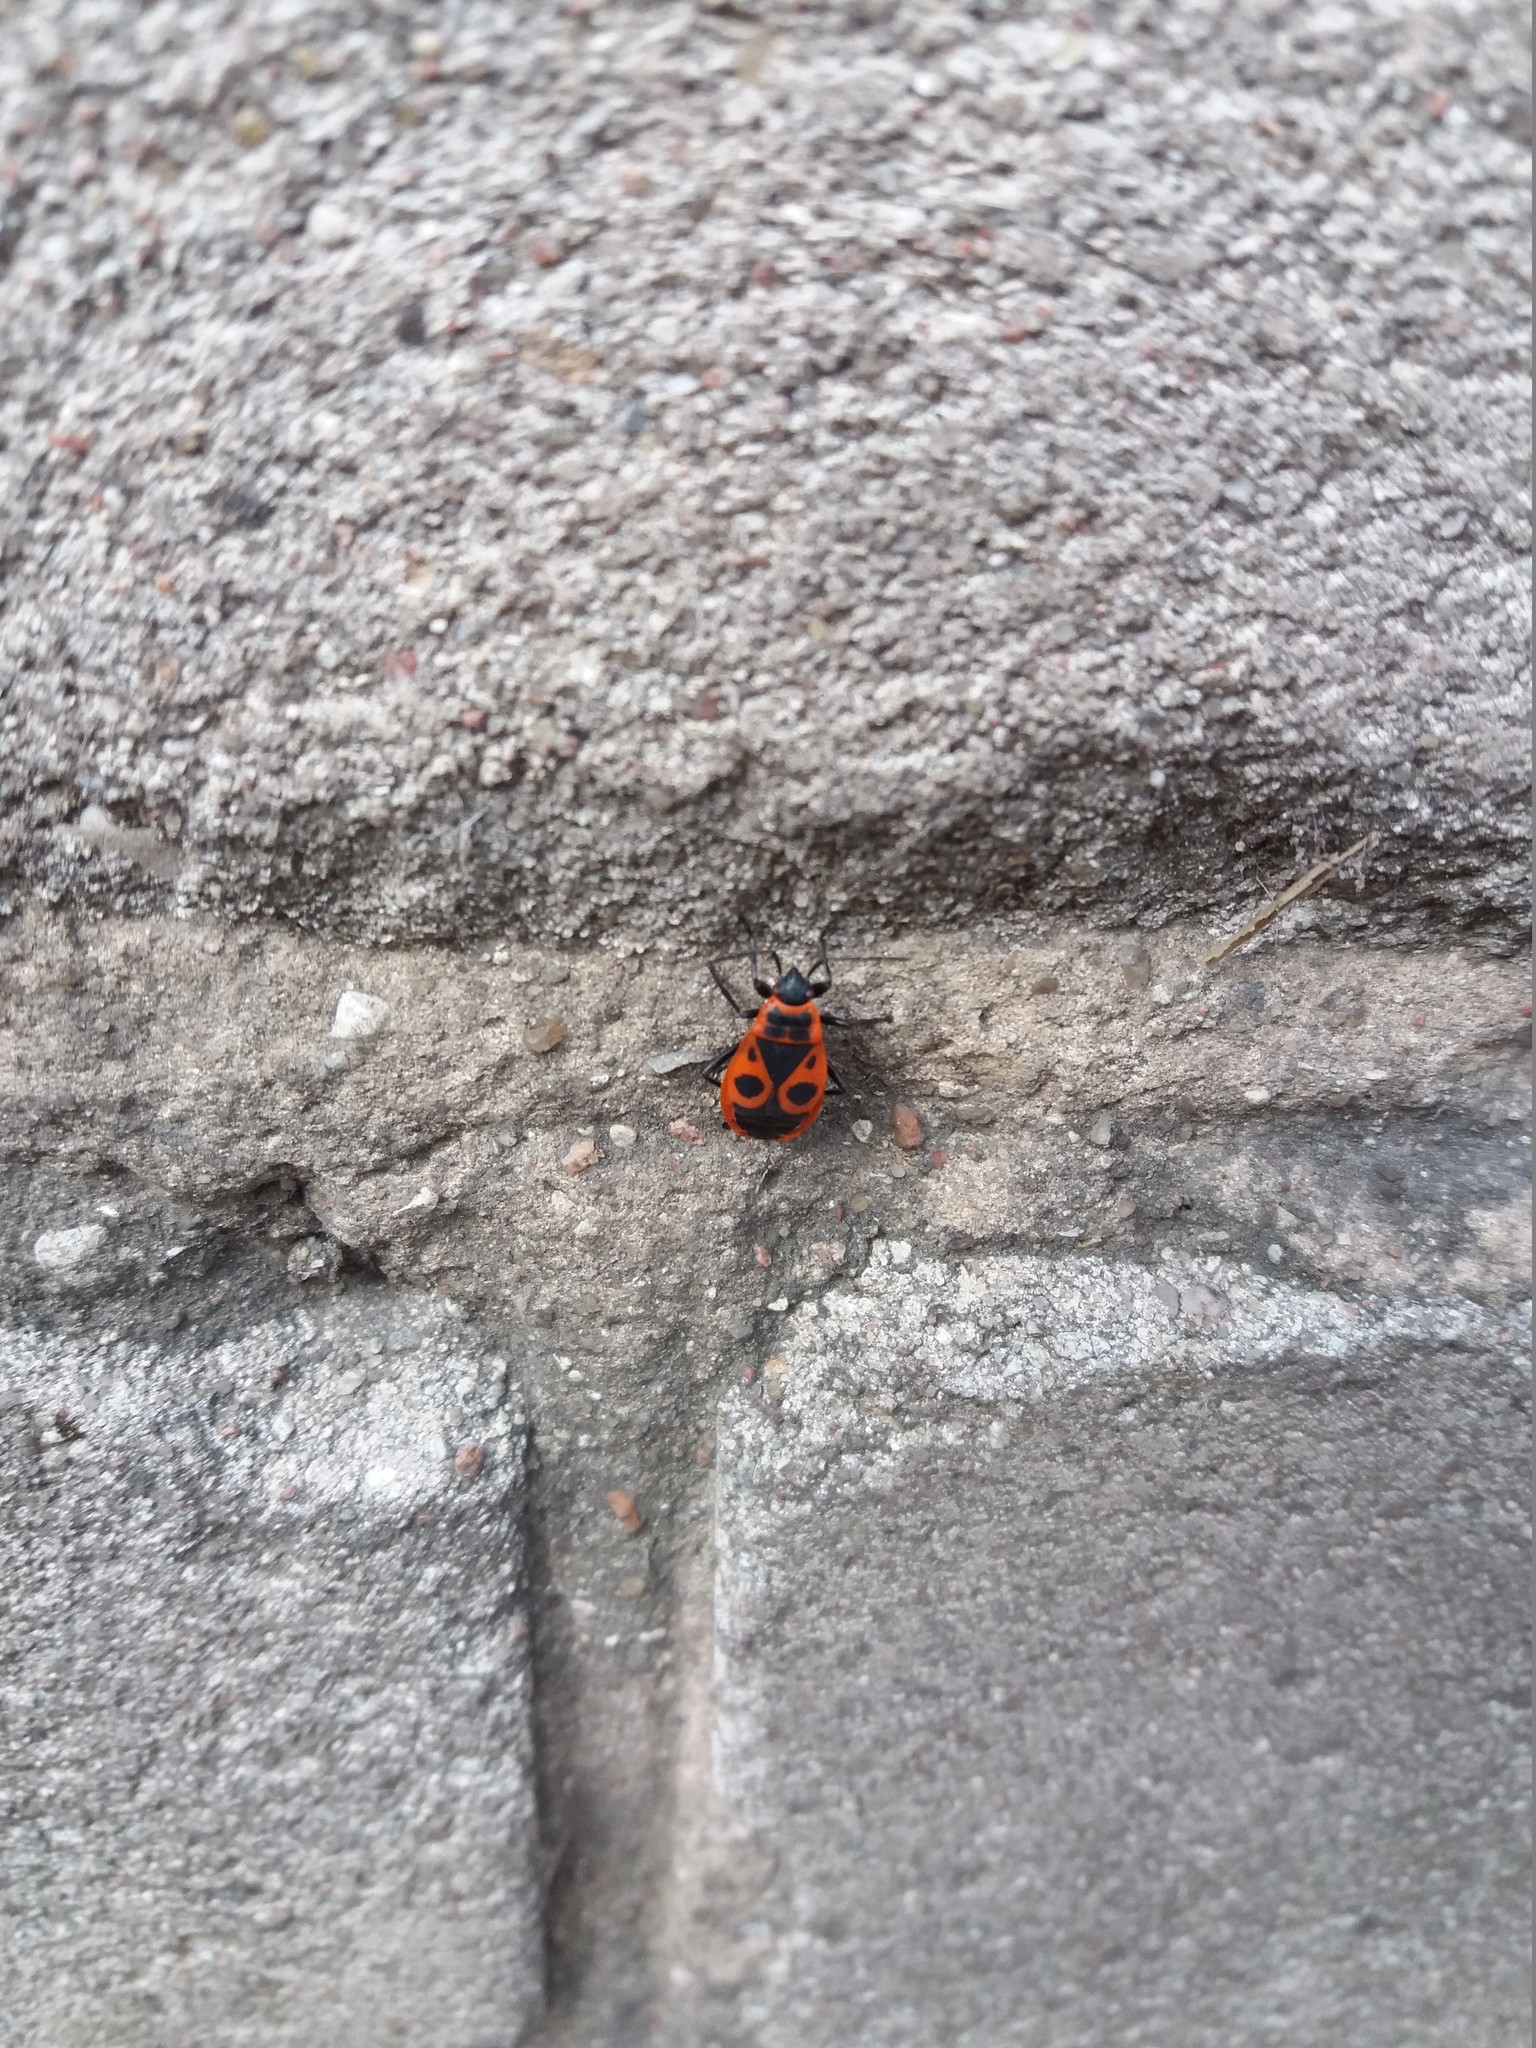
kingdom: Animalia
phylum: Arthropoda
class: Insecta
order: Hemiptera
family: Pyrrhocoridae
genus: Pyrrhocoris
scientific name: Pyrrhocoris apterus
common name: Firebug
